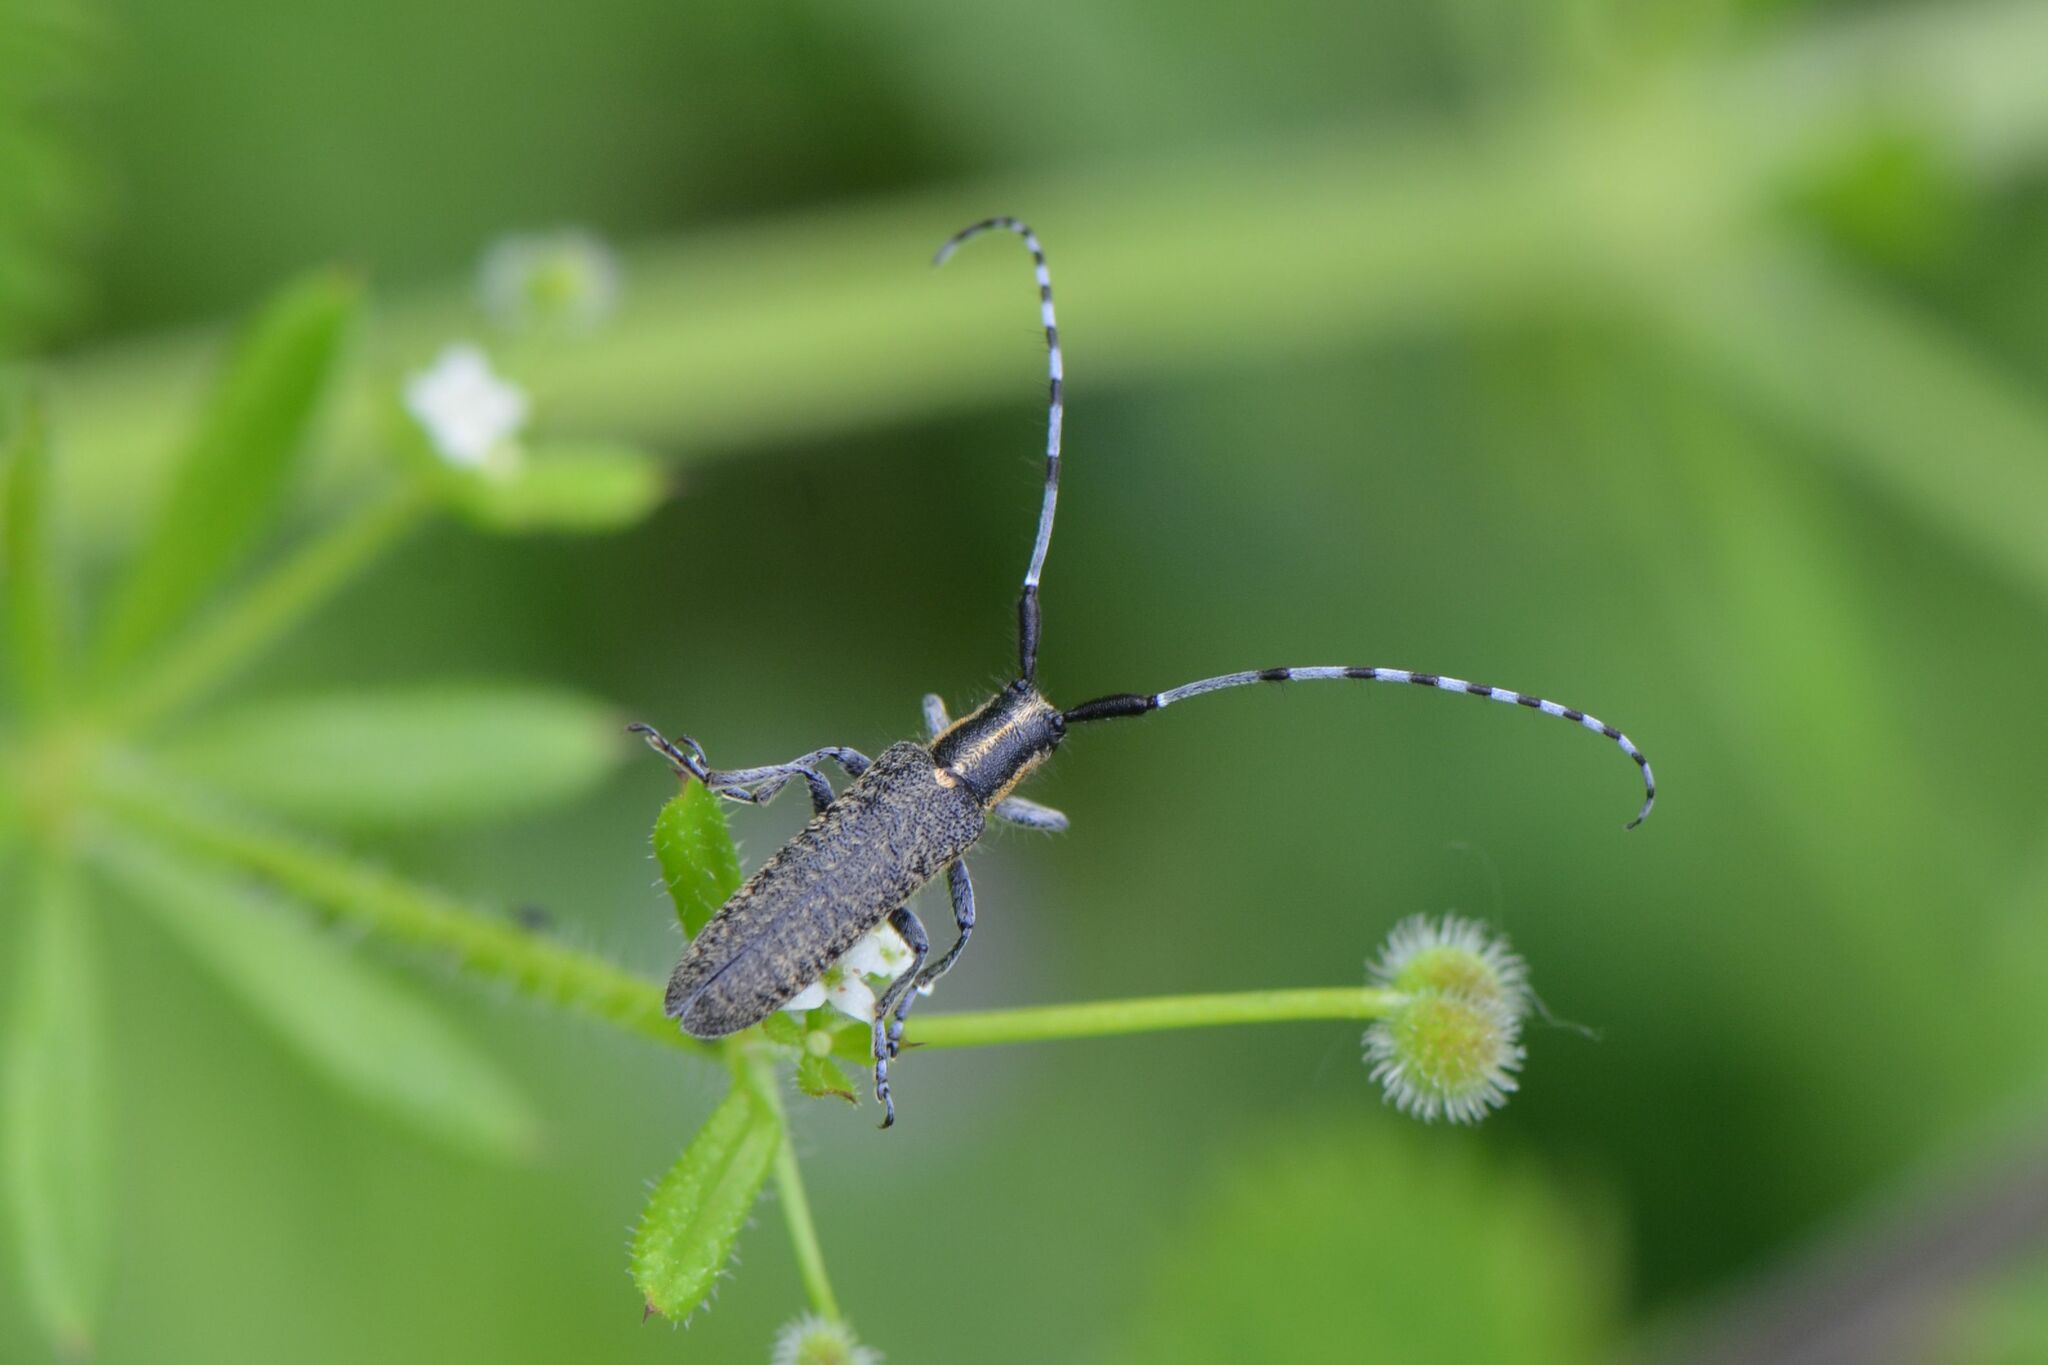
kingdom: Animalia
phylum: Arthropoda
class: Insecta
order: Coleoptera
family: Cerambycidae
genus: Agapanthia
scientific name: Agapanthia villosoviridescens
